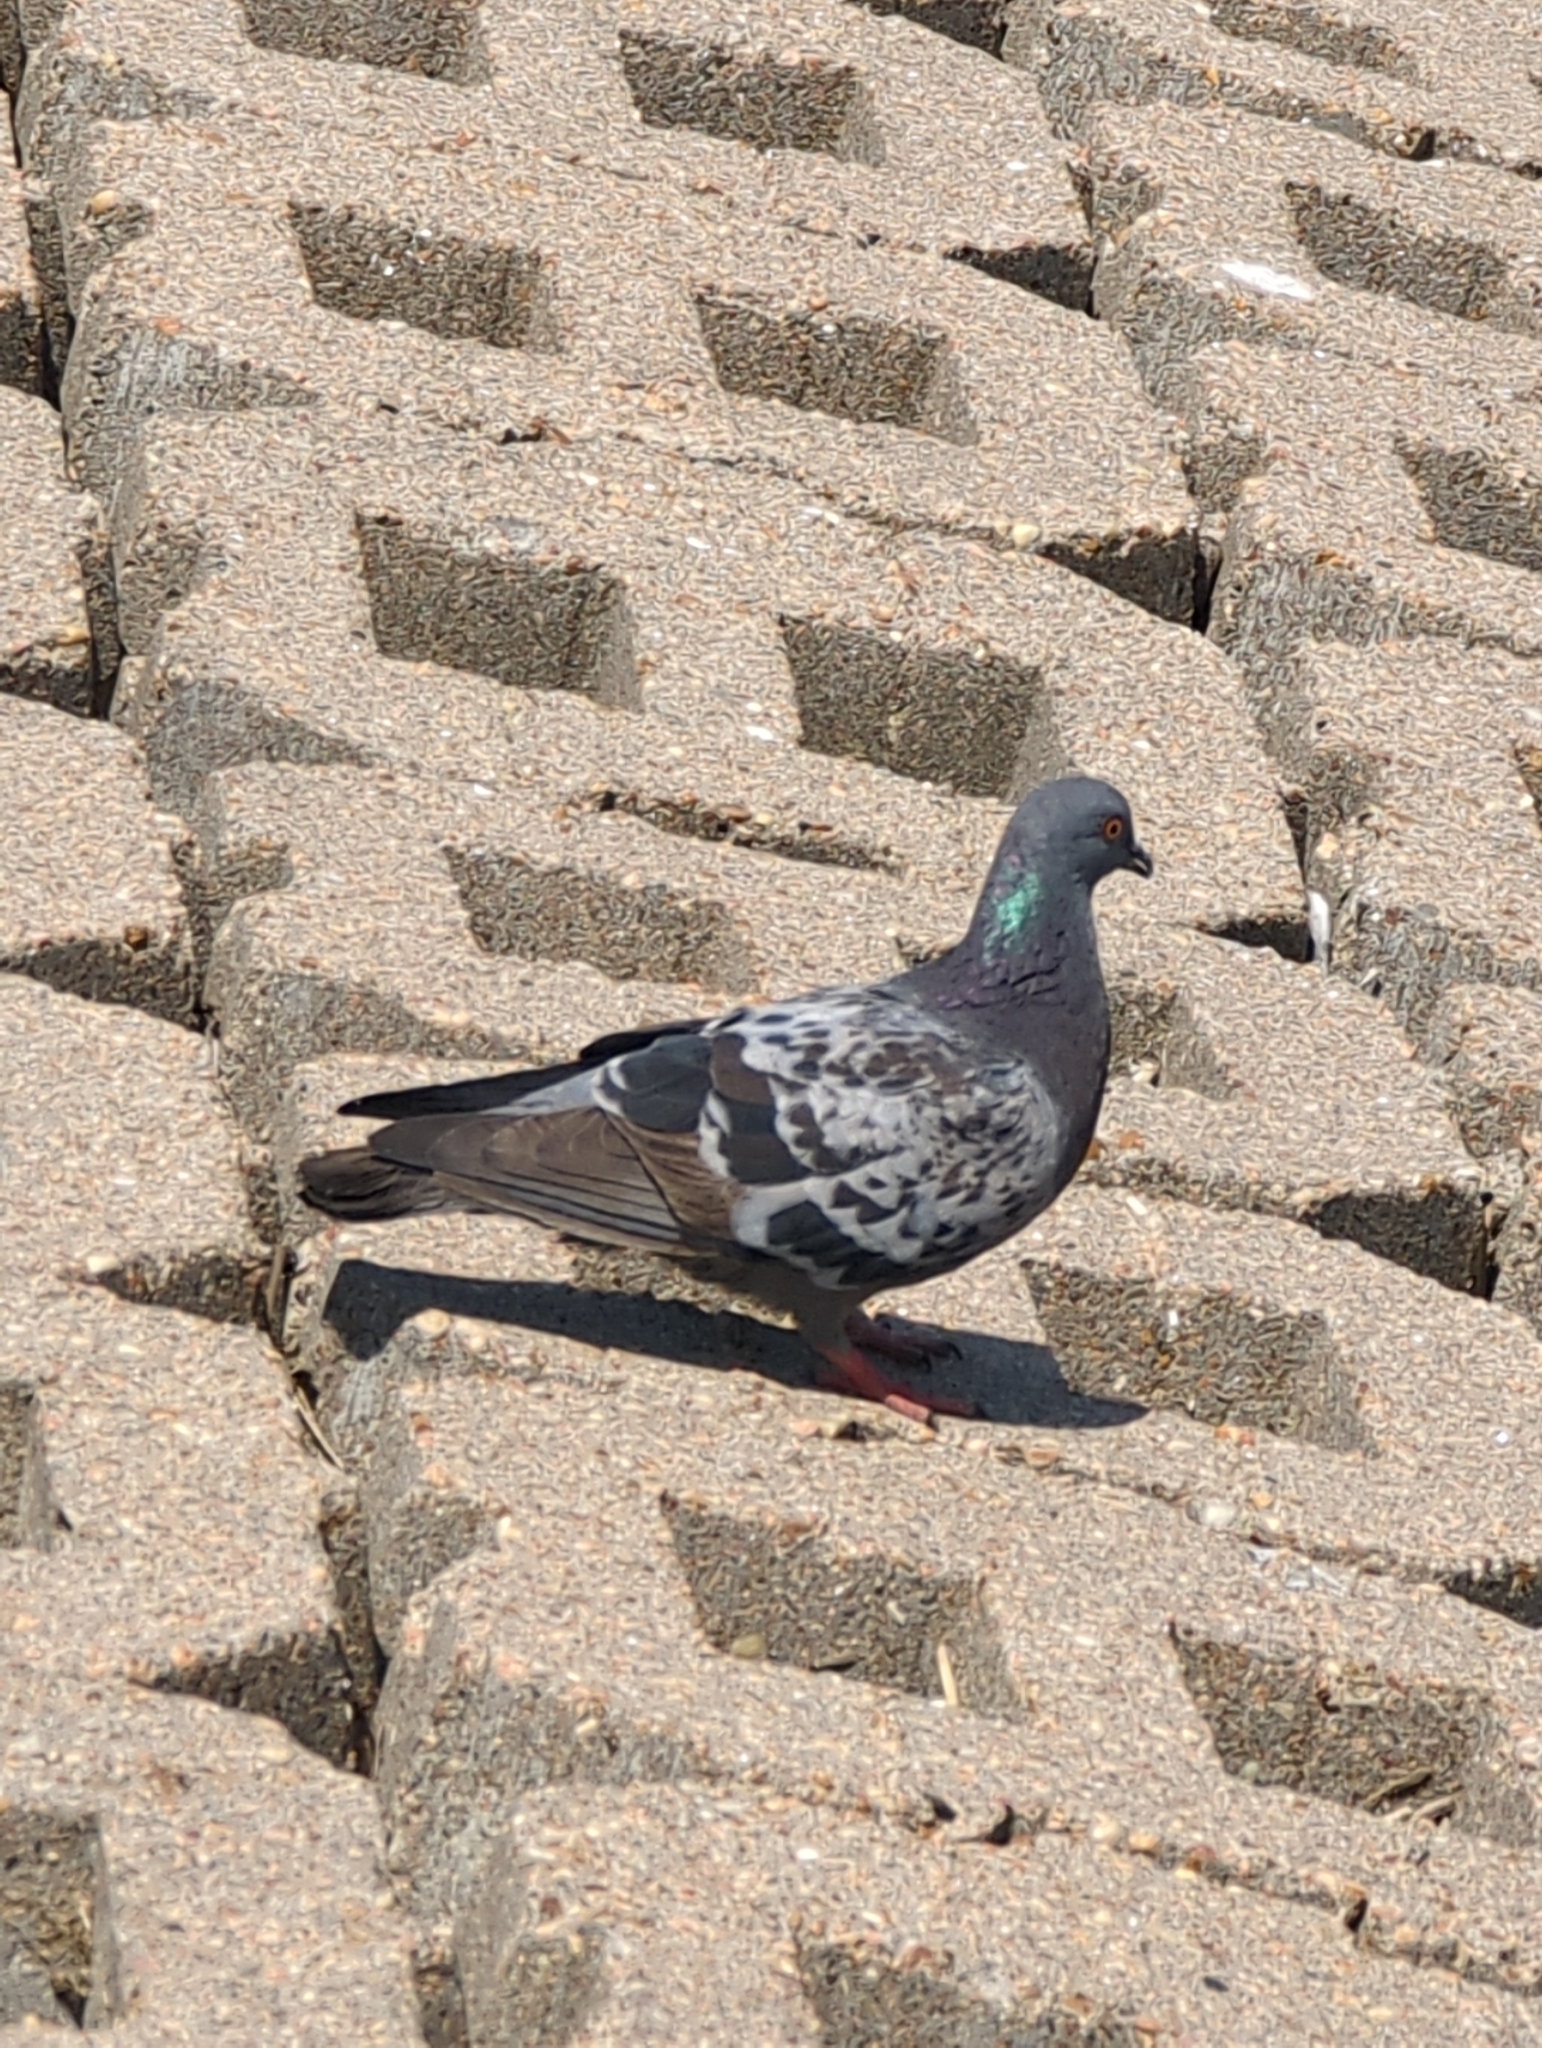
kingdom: Animalia
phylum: Chordata
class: Aves
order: Columbiformes
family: Columbidae
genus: Columba
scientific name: Columba livia
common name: Rock pigeon
